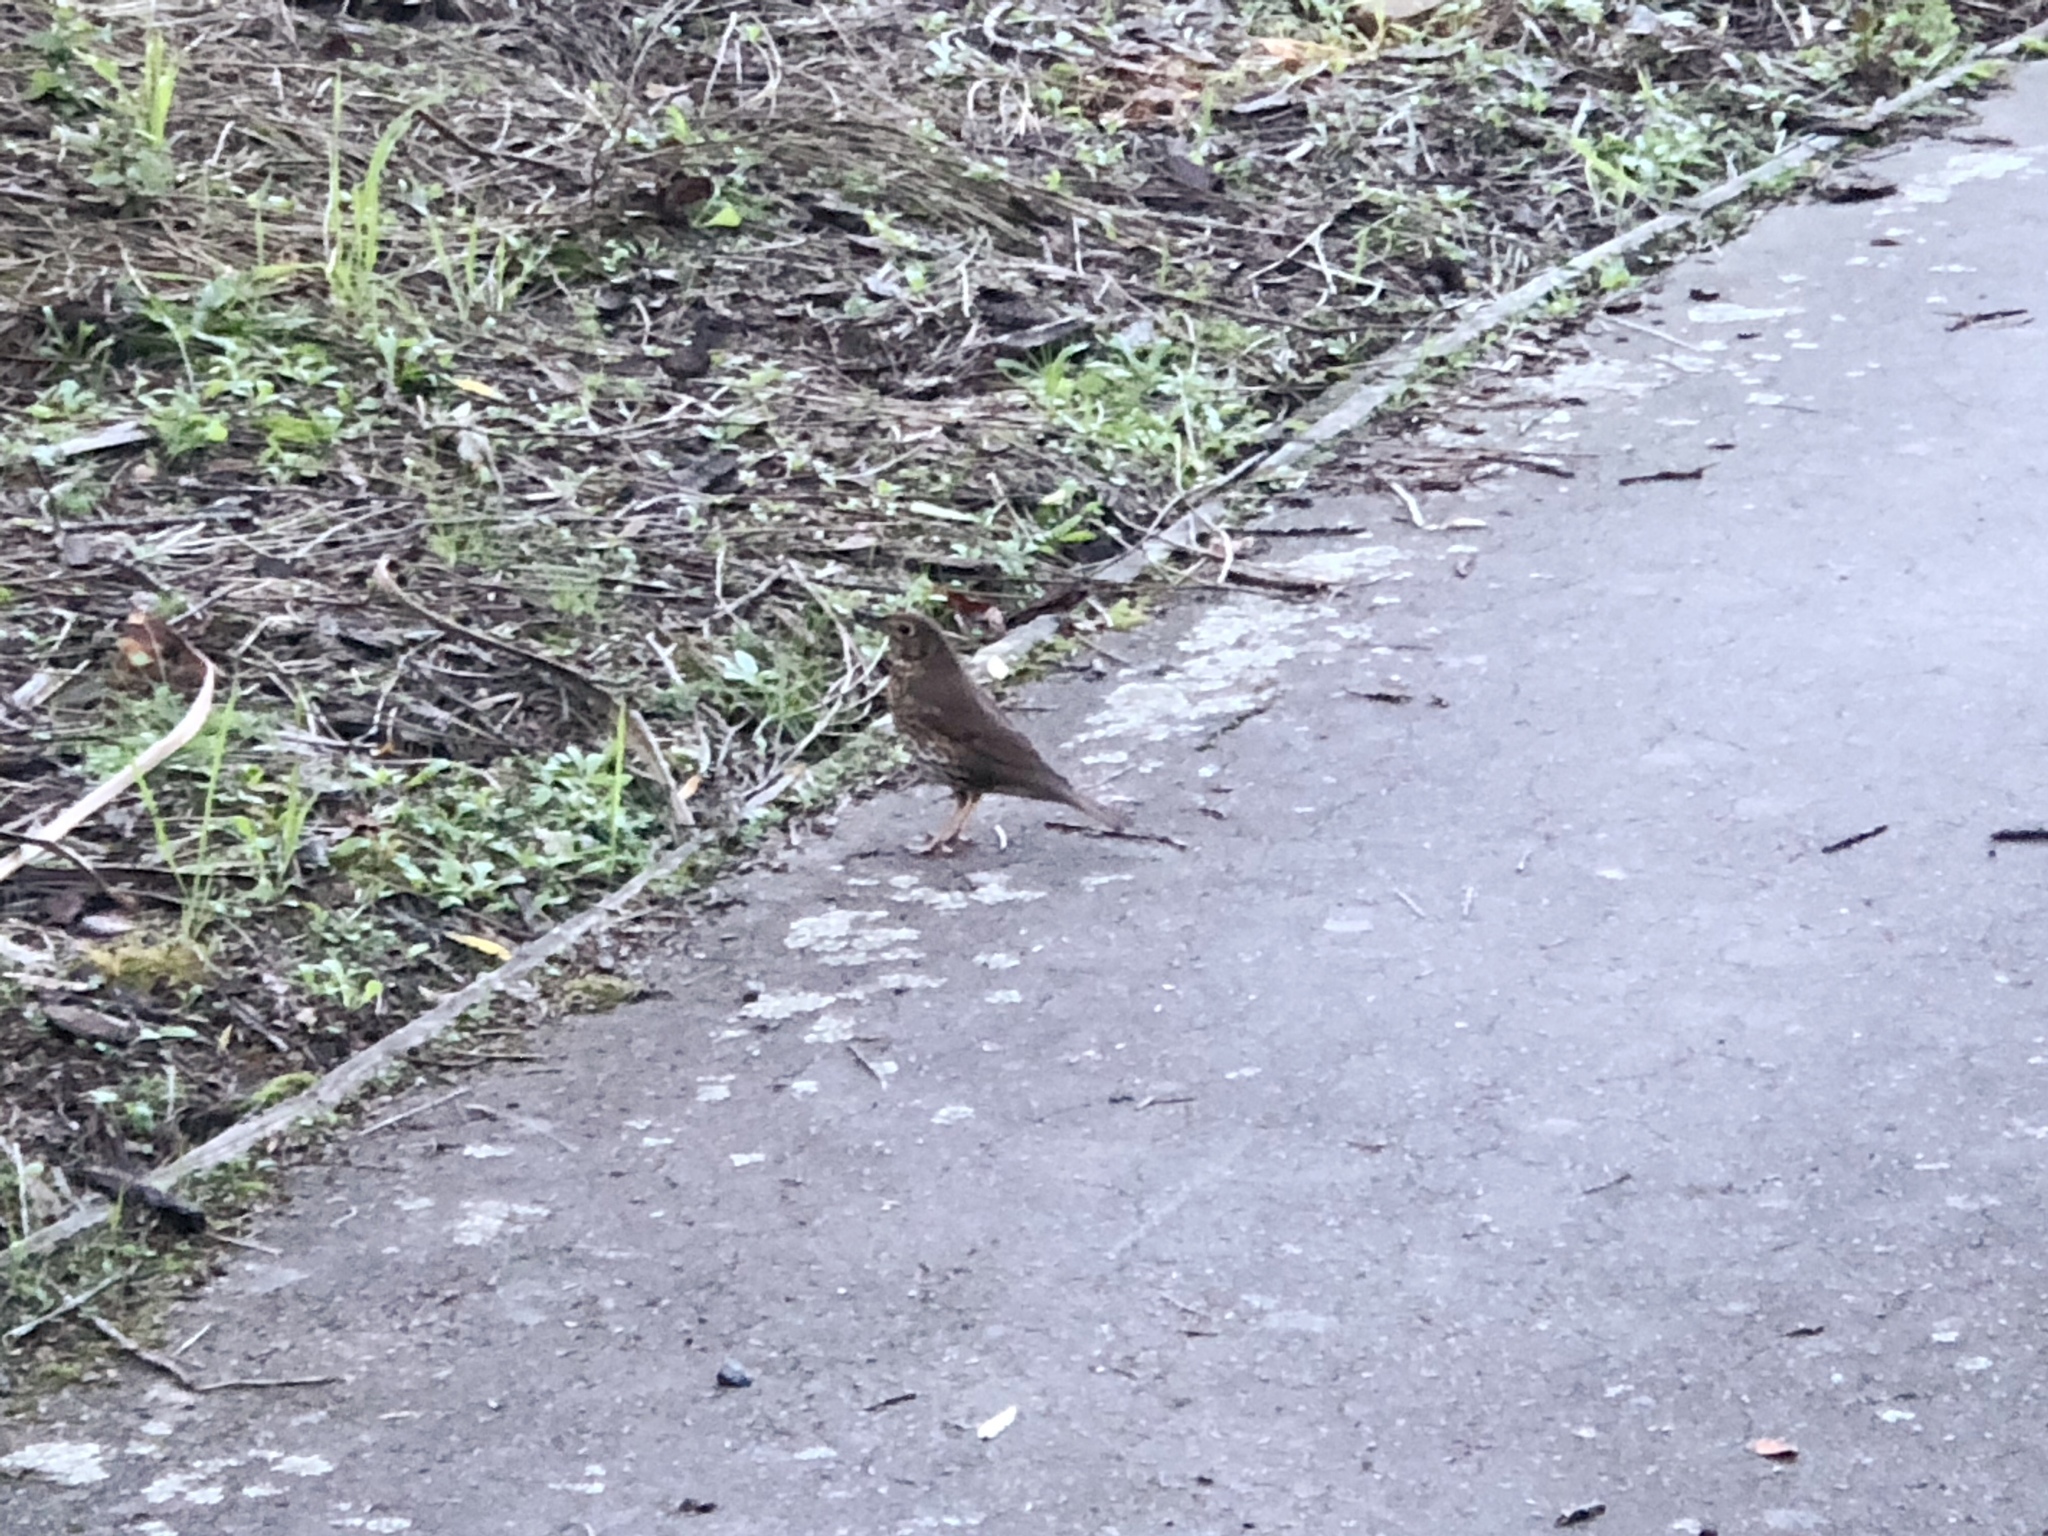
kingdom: Animalia
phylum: Chordata
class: Aves
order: Passeriformes
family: Turdidae
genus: Turdus
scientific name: Turdus philomelos
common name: Song thrush
